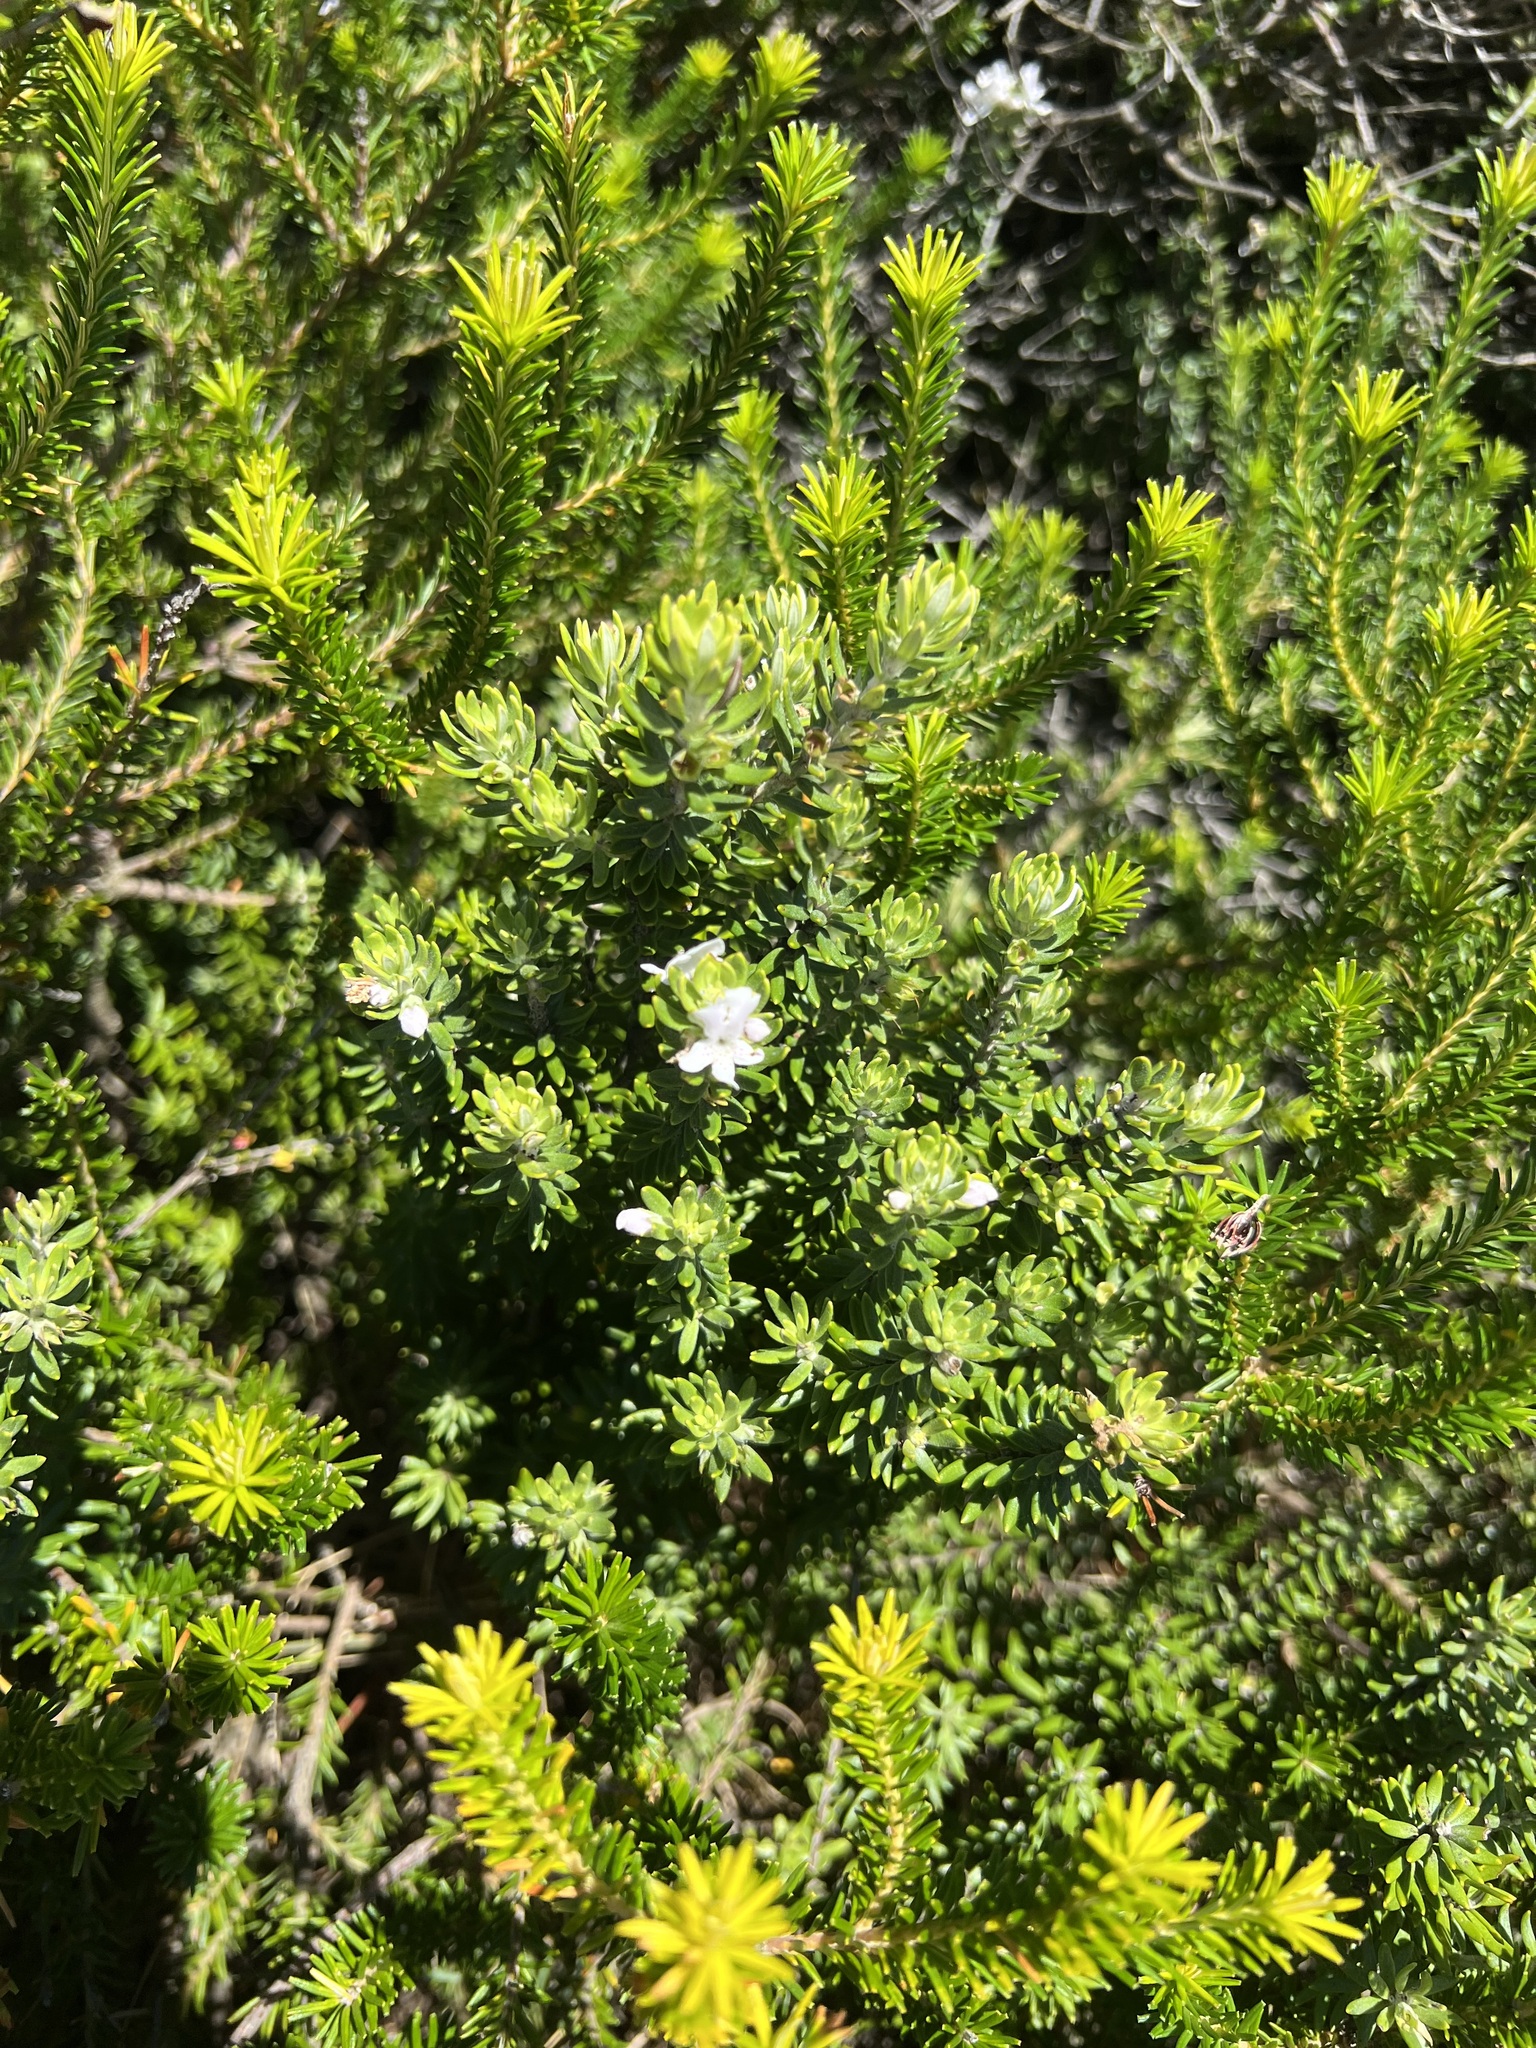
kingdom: Plantae
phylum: Tracheophyta
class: Magnoliopsida
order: Lamiales
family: Lamiaceae
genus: Westringia
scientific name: Westringia fruticosa
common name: Coastal-rosemary
